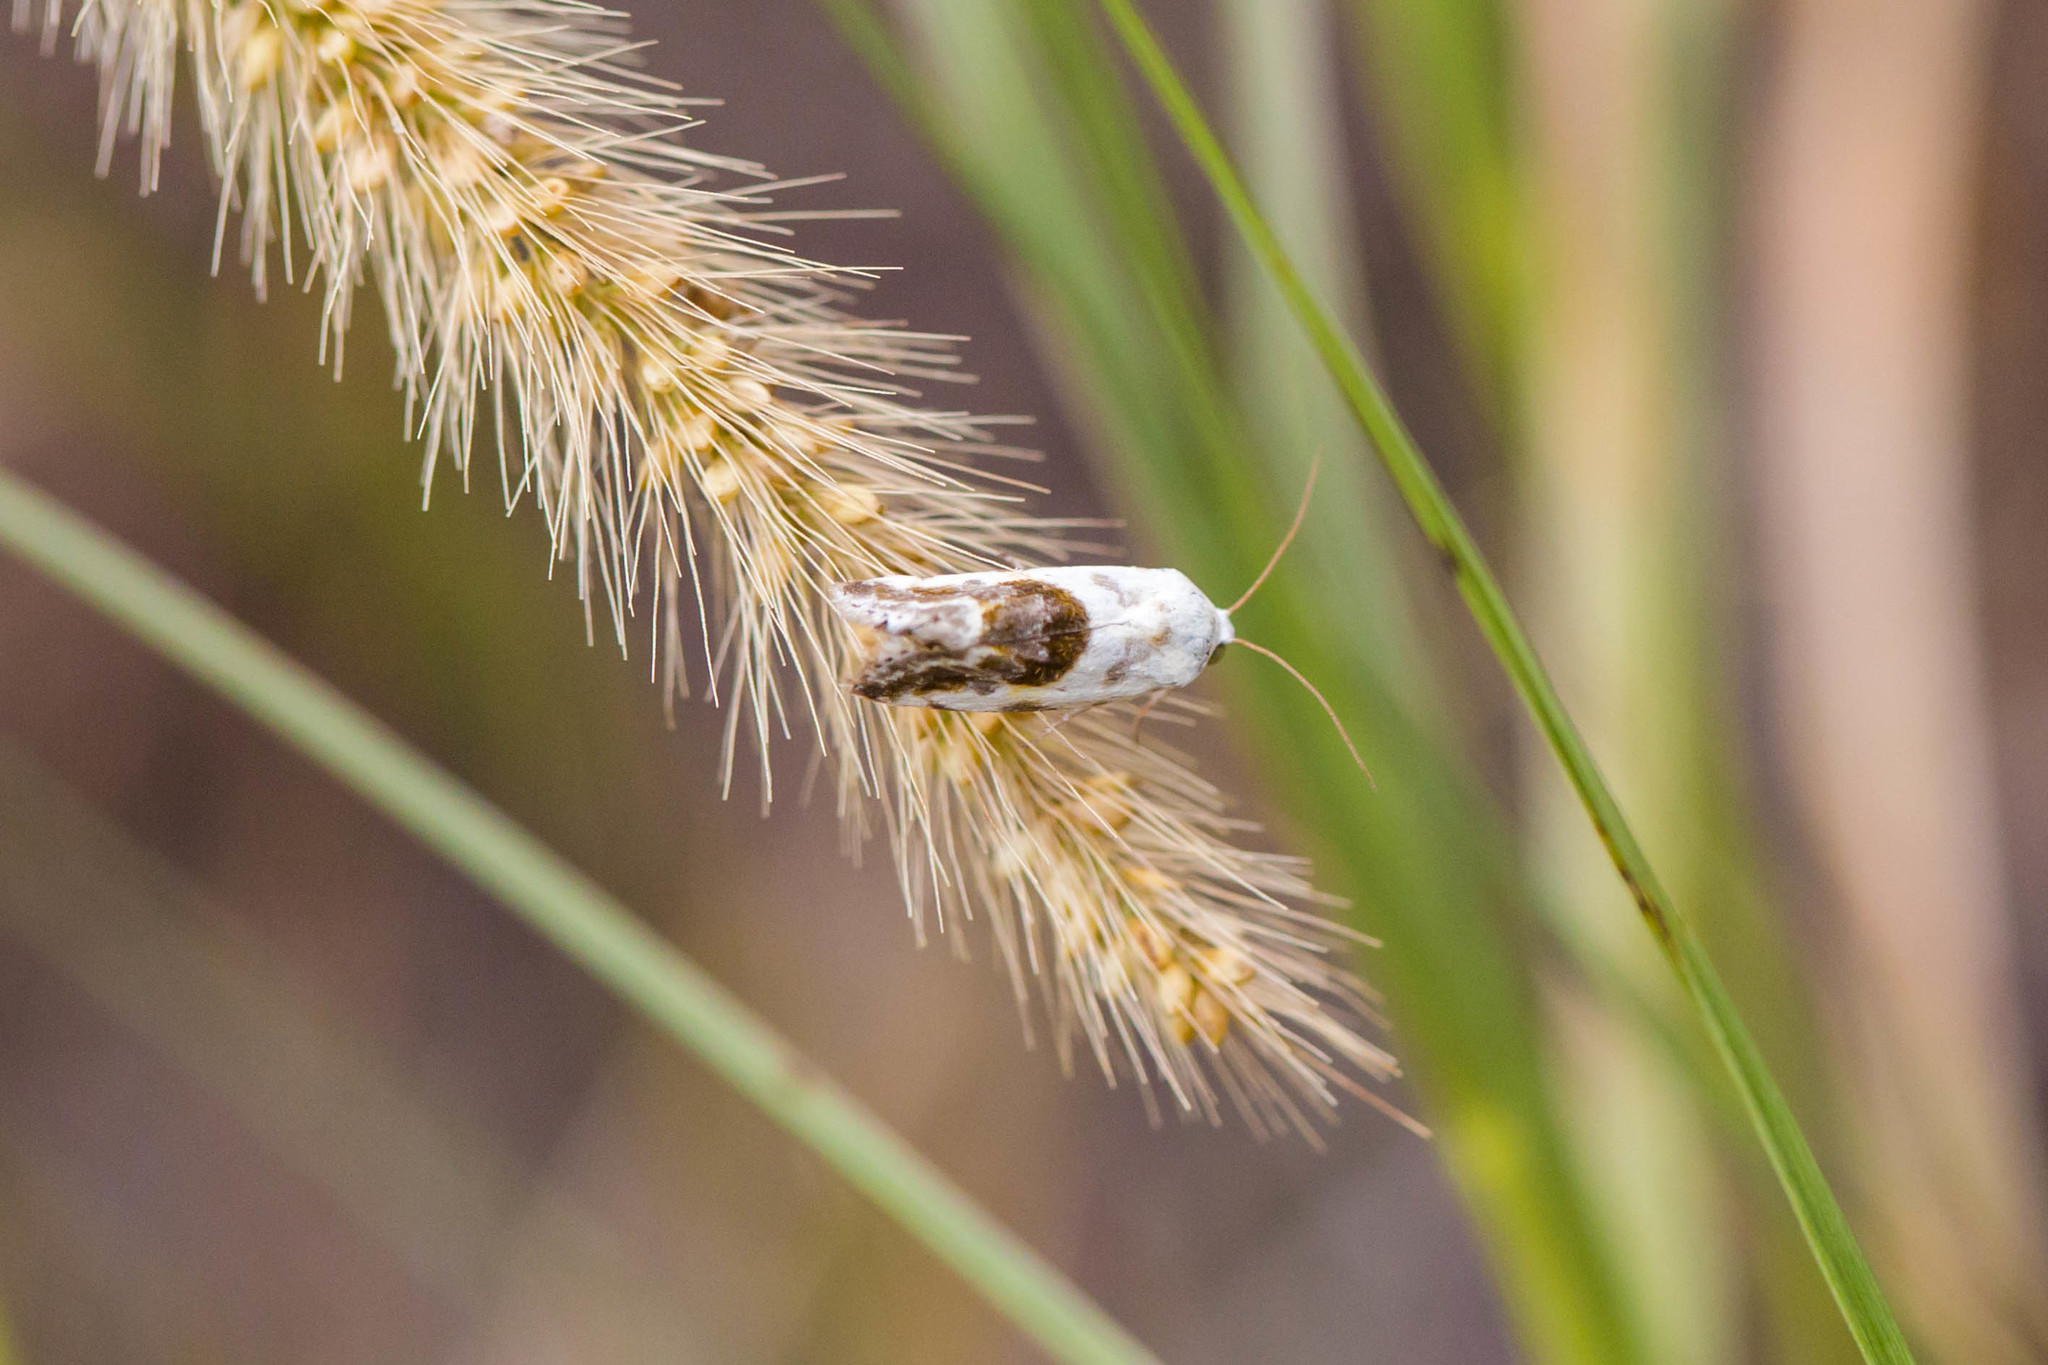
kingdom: Animalia
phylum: Arthropoda
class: Insecta
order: Lepidoptera
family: Noctuidae
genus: Acontia
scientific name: Acontia candefacta
